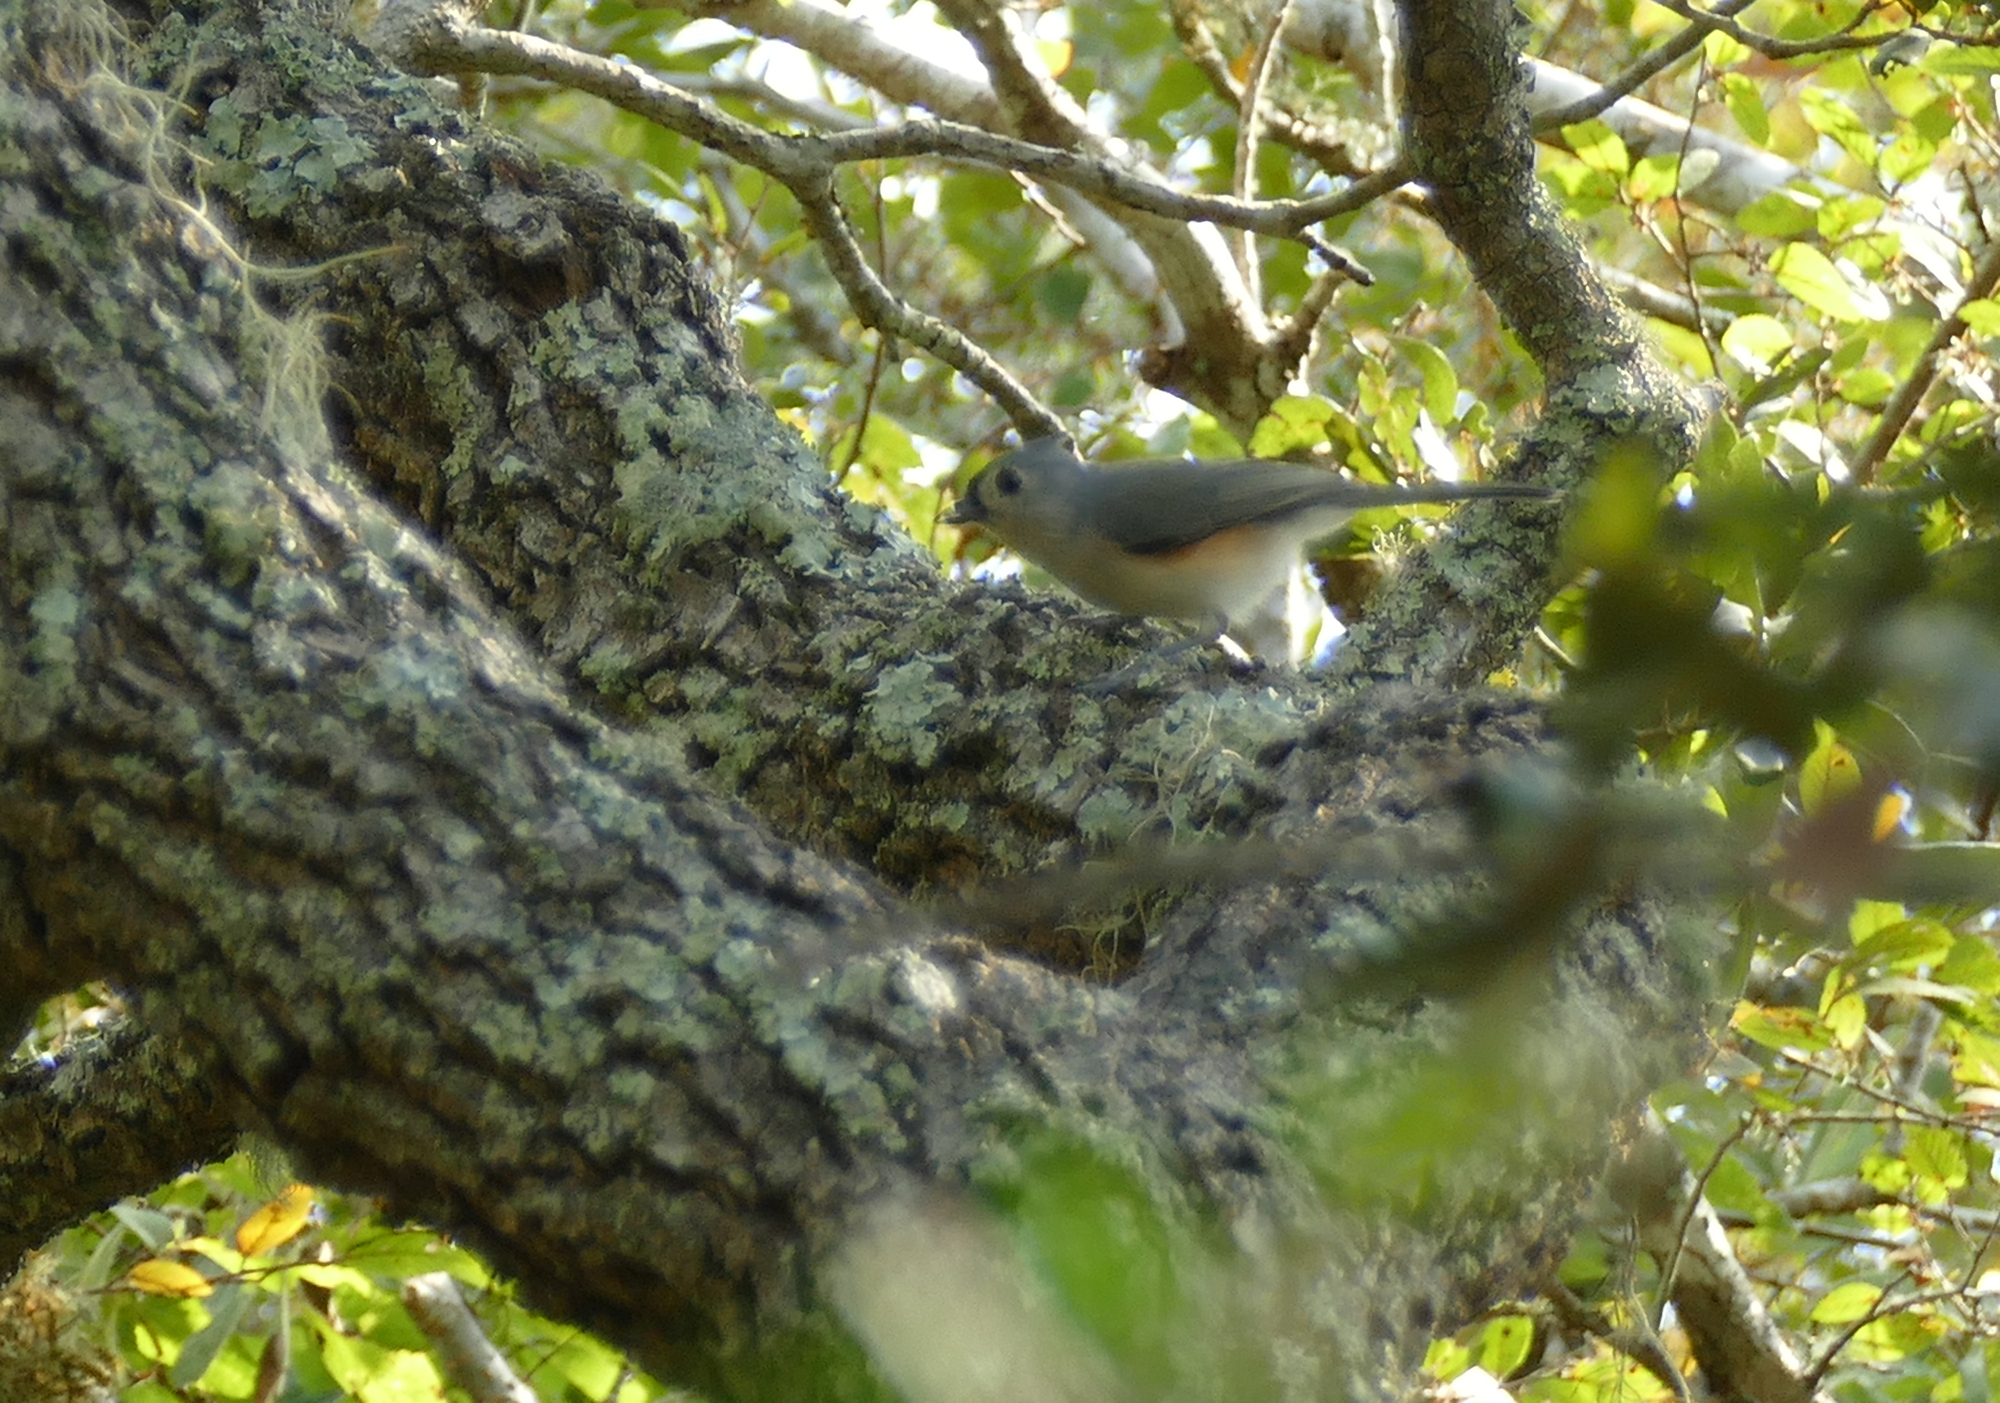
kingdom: Animalia
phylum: Chordata
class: Aves
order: Passeriformes
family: Paridae
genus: Baeolophus
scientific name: Baeolophus bicolor
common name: Tufted titmouse
